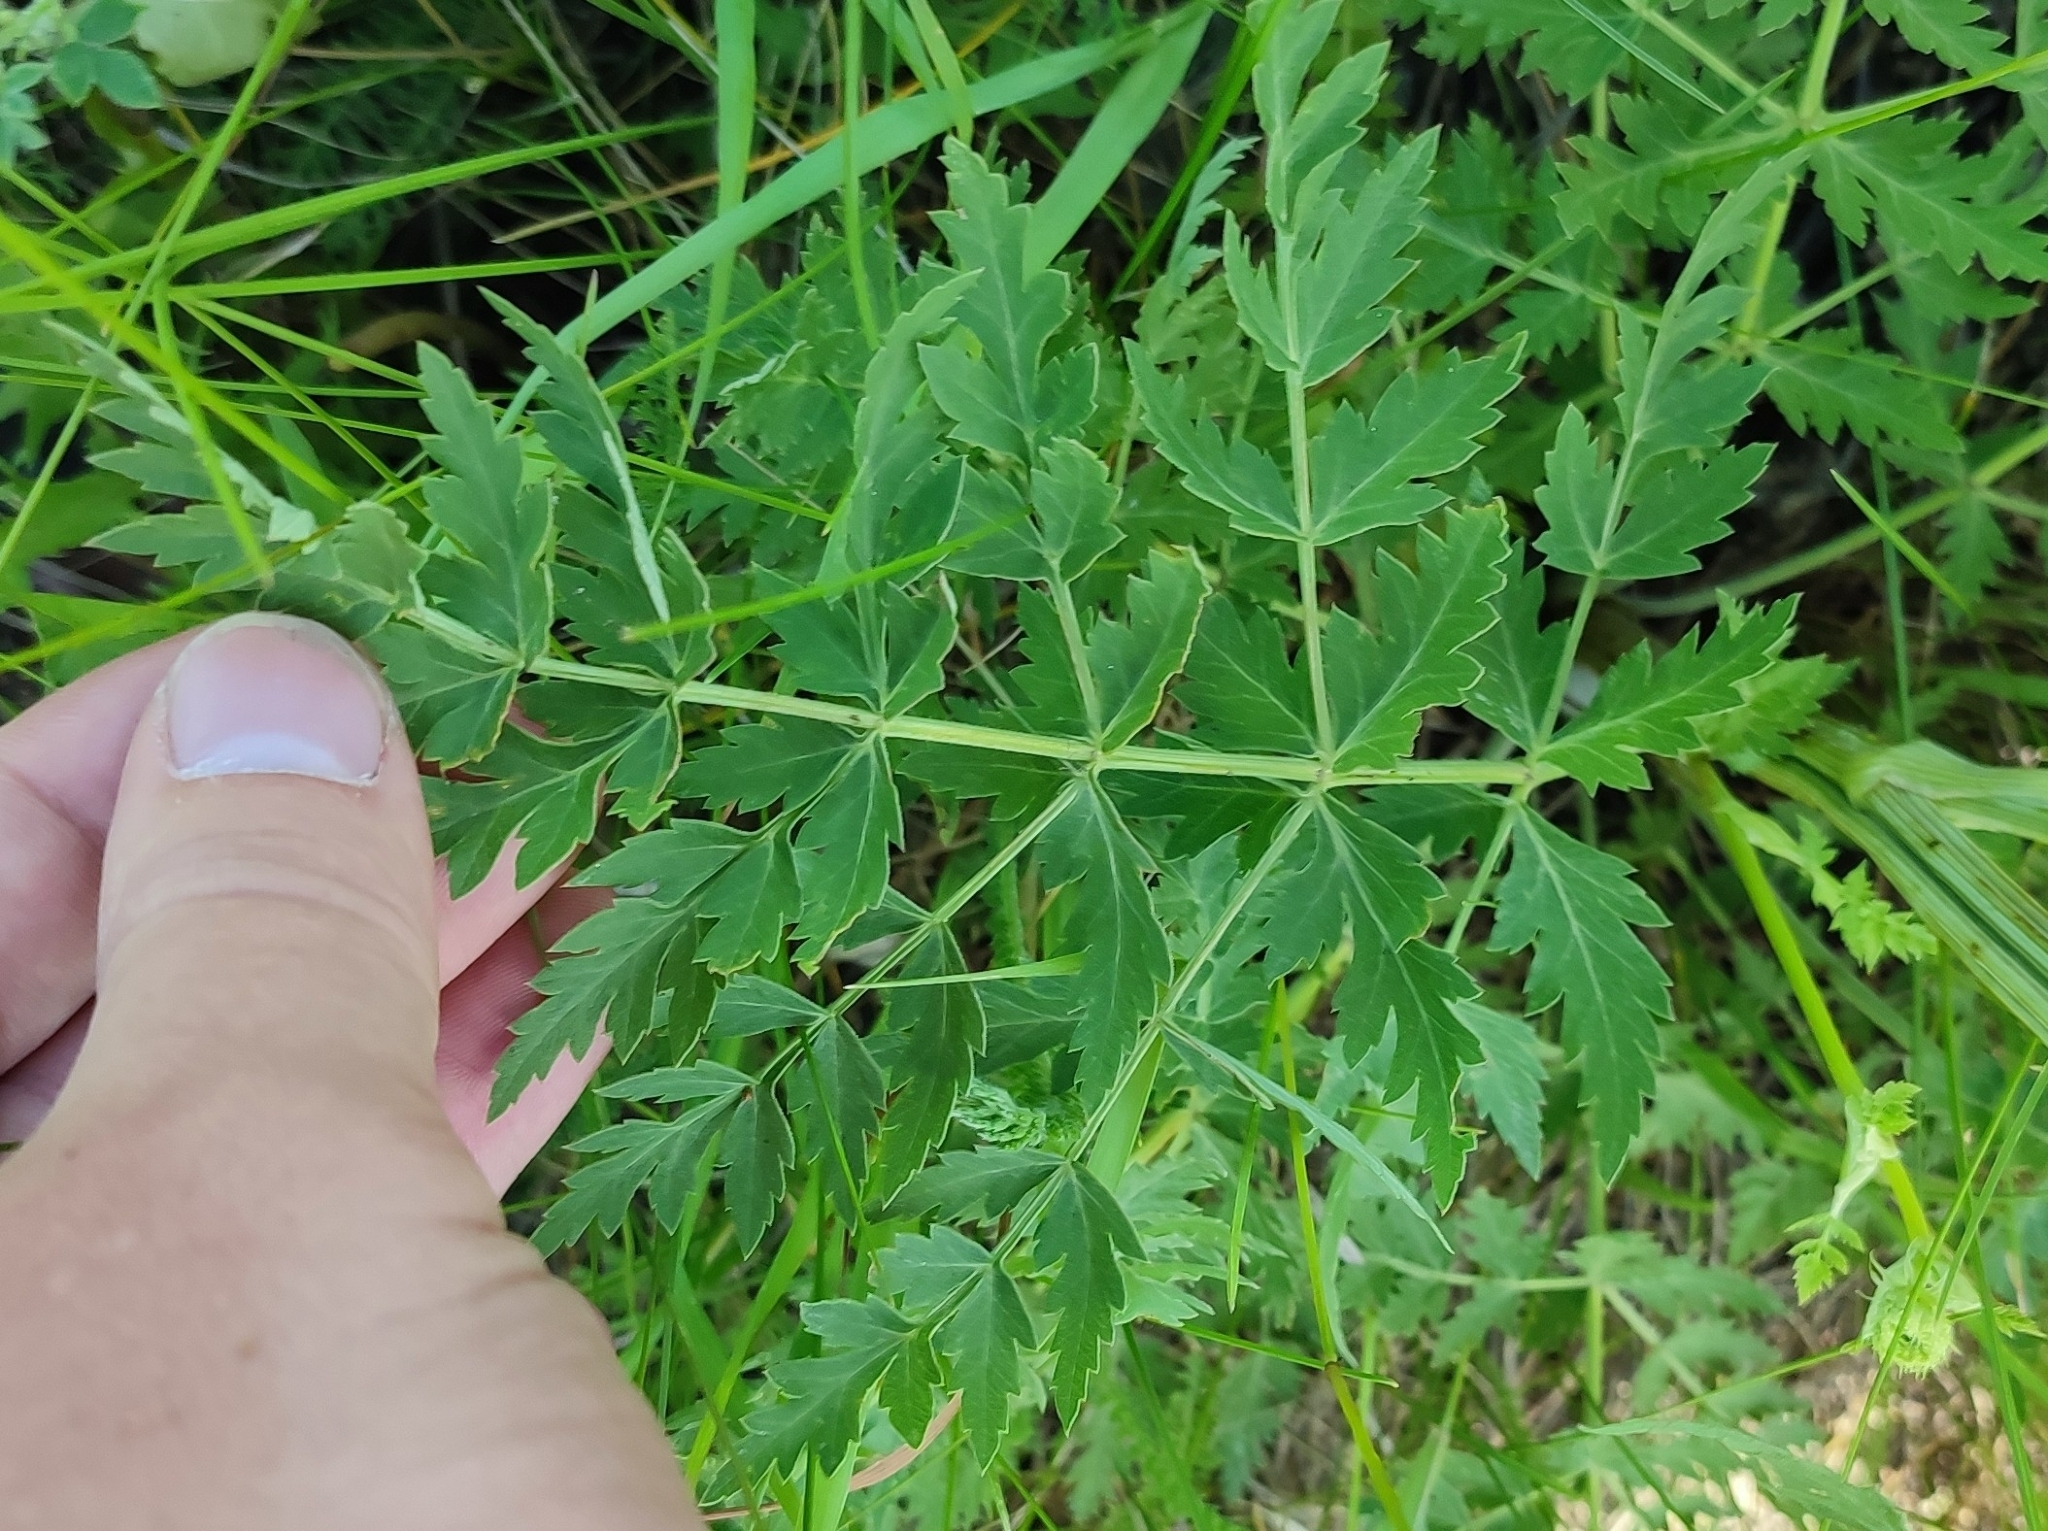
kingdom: Plantae
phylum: Tracheophyta
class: Magnoliopsida
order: Apiales
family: Apiaceae
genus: Seseli
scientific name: Seseli libanotis
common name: Mooncarrot
